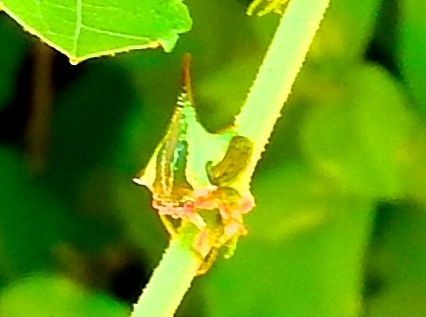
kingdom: Animalia
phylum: Arthropoda
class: Insecta
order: Hemiptera
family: Membracidae
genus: Umbonia
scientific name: Umbonia
